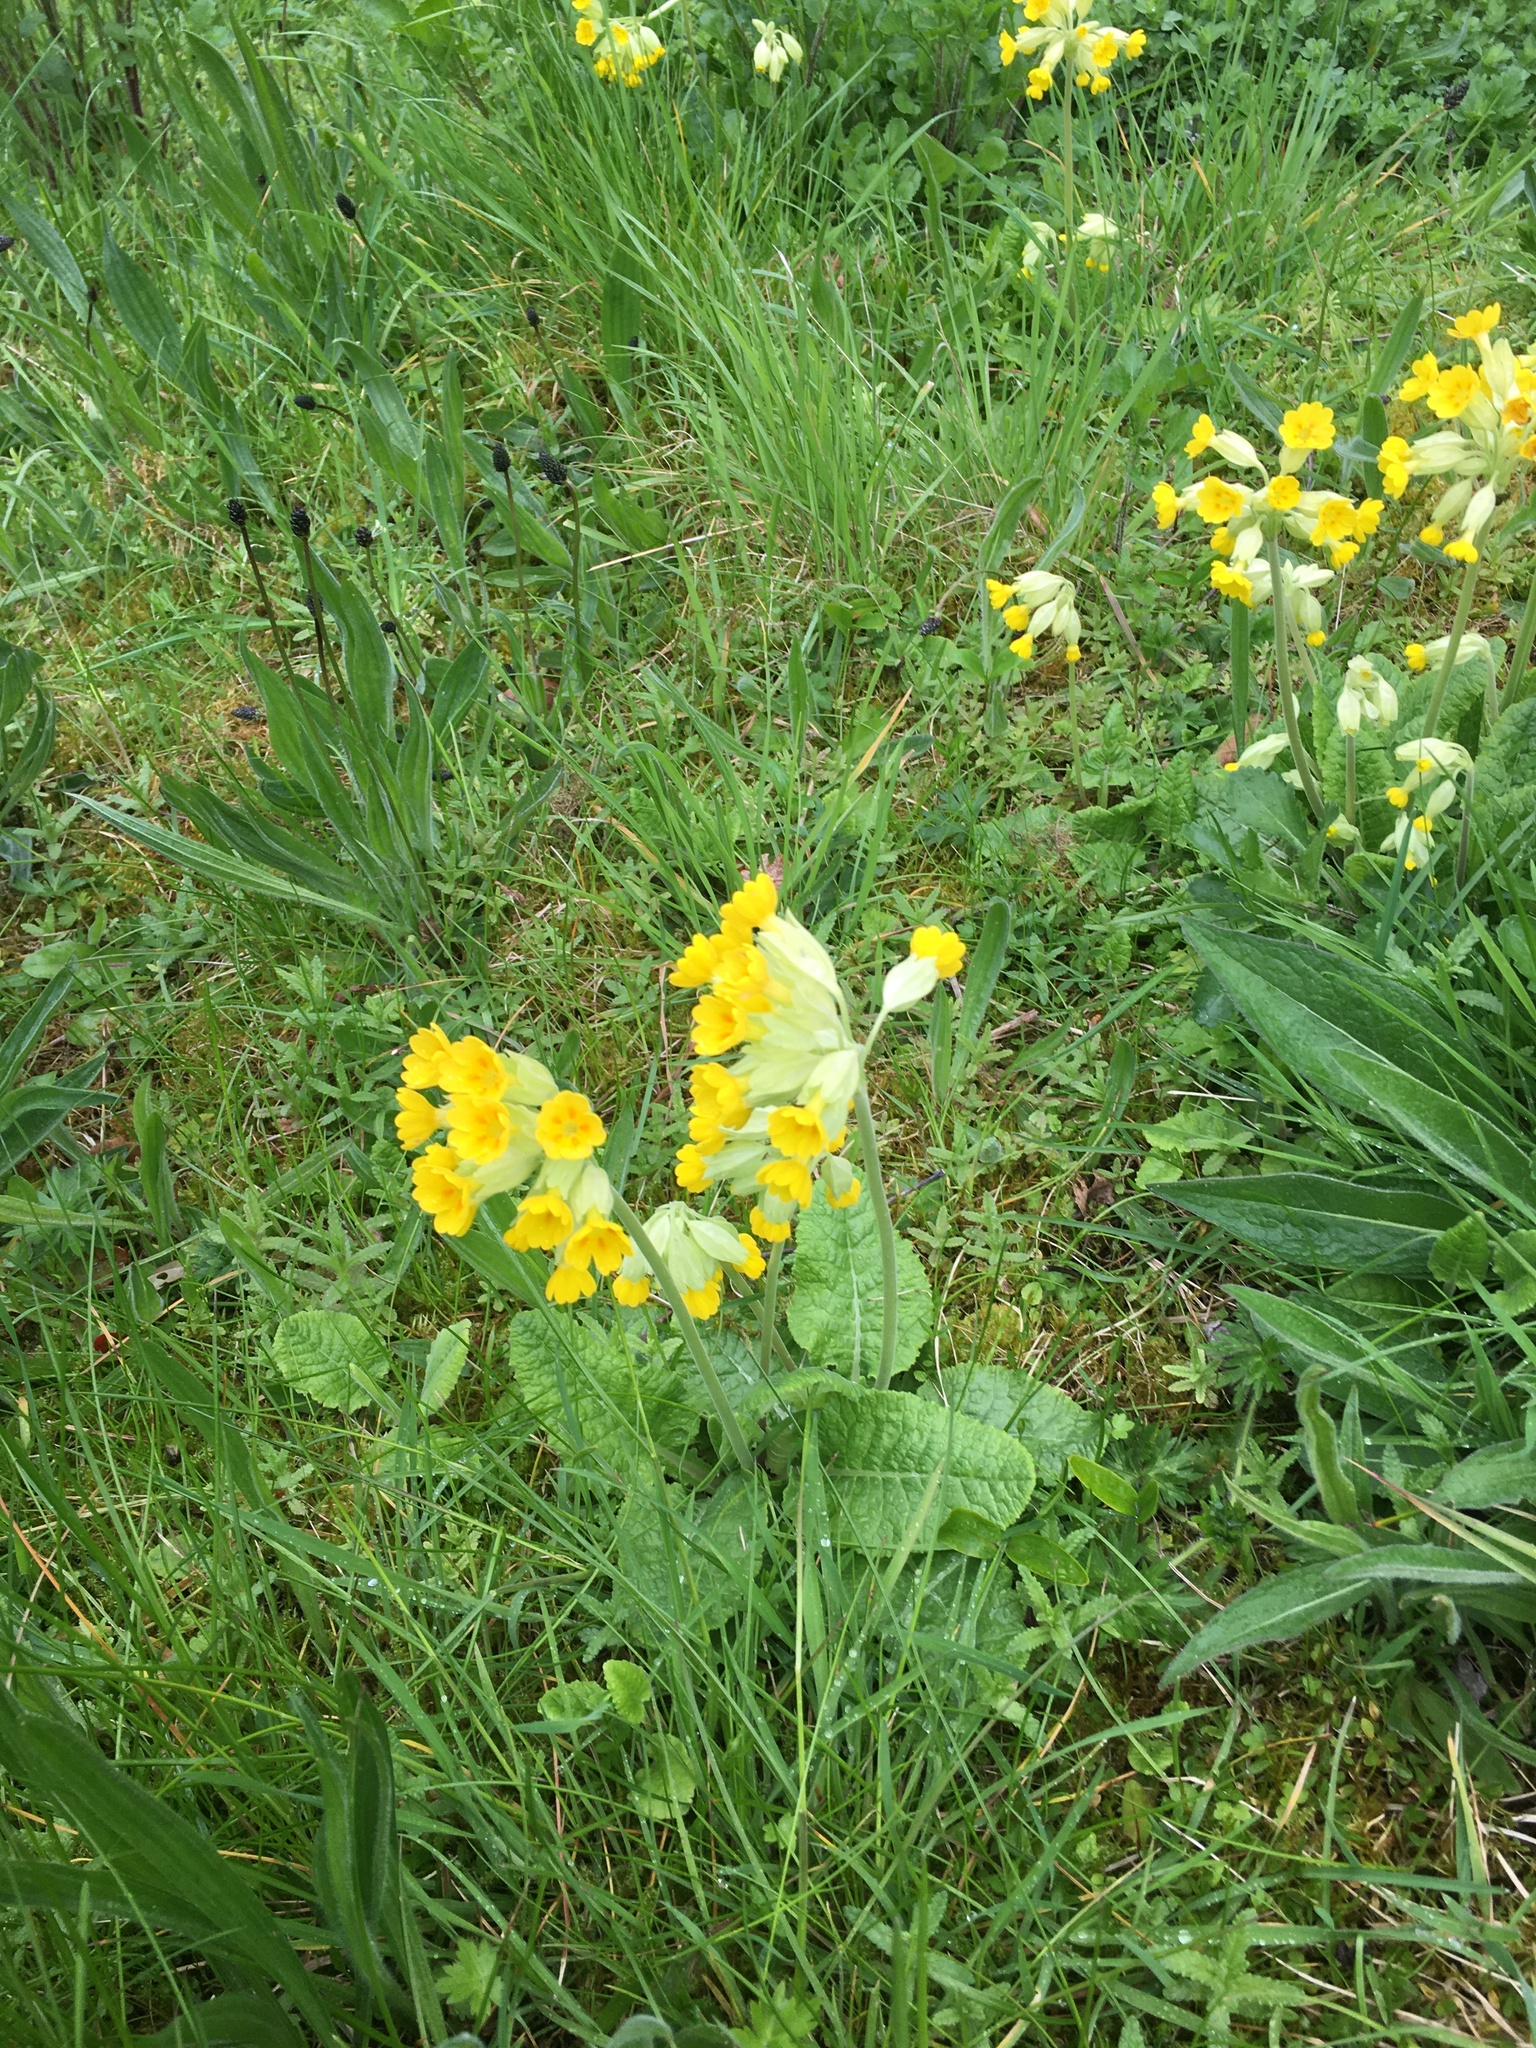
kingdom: Plantae
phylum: Tracheophyta
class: Magnoliopsida
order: Ericales
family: Primulaceae
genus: Primula
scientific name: Primula veris
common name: Cowslip
